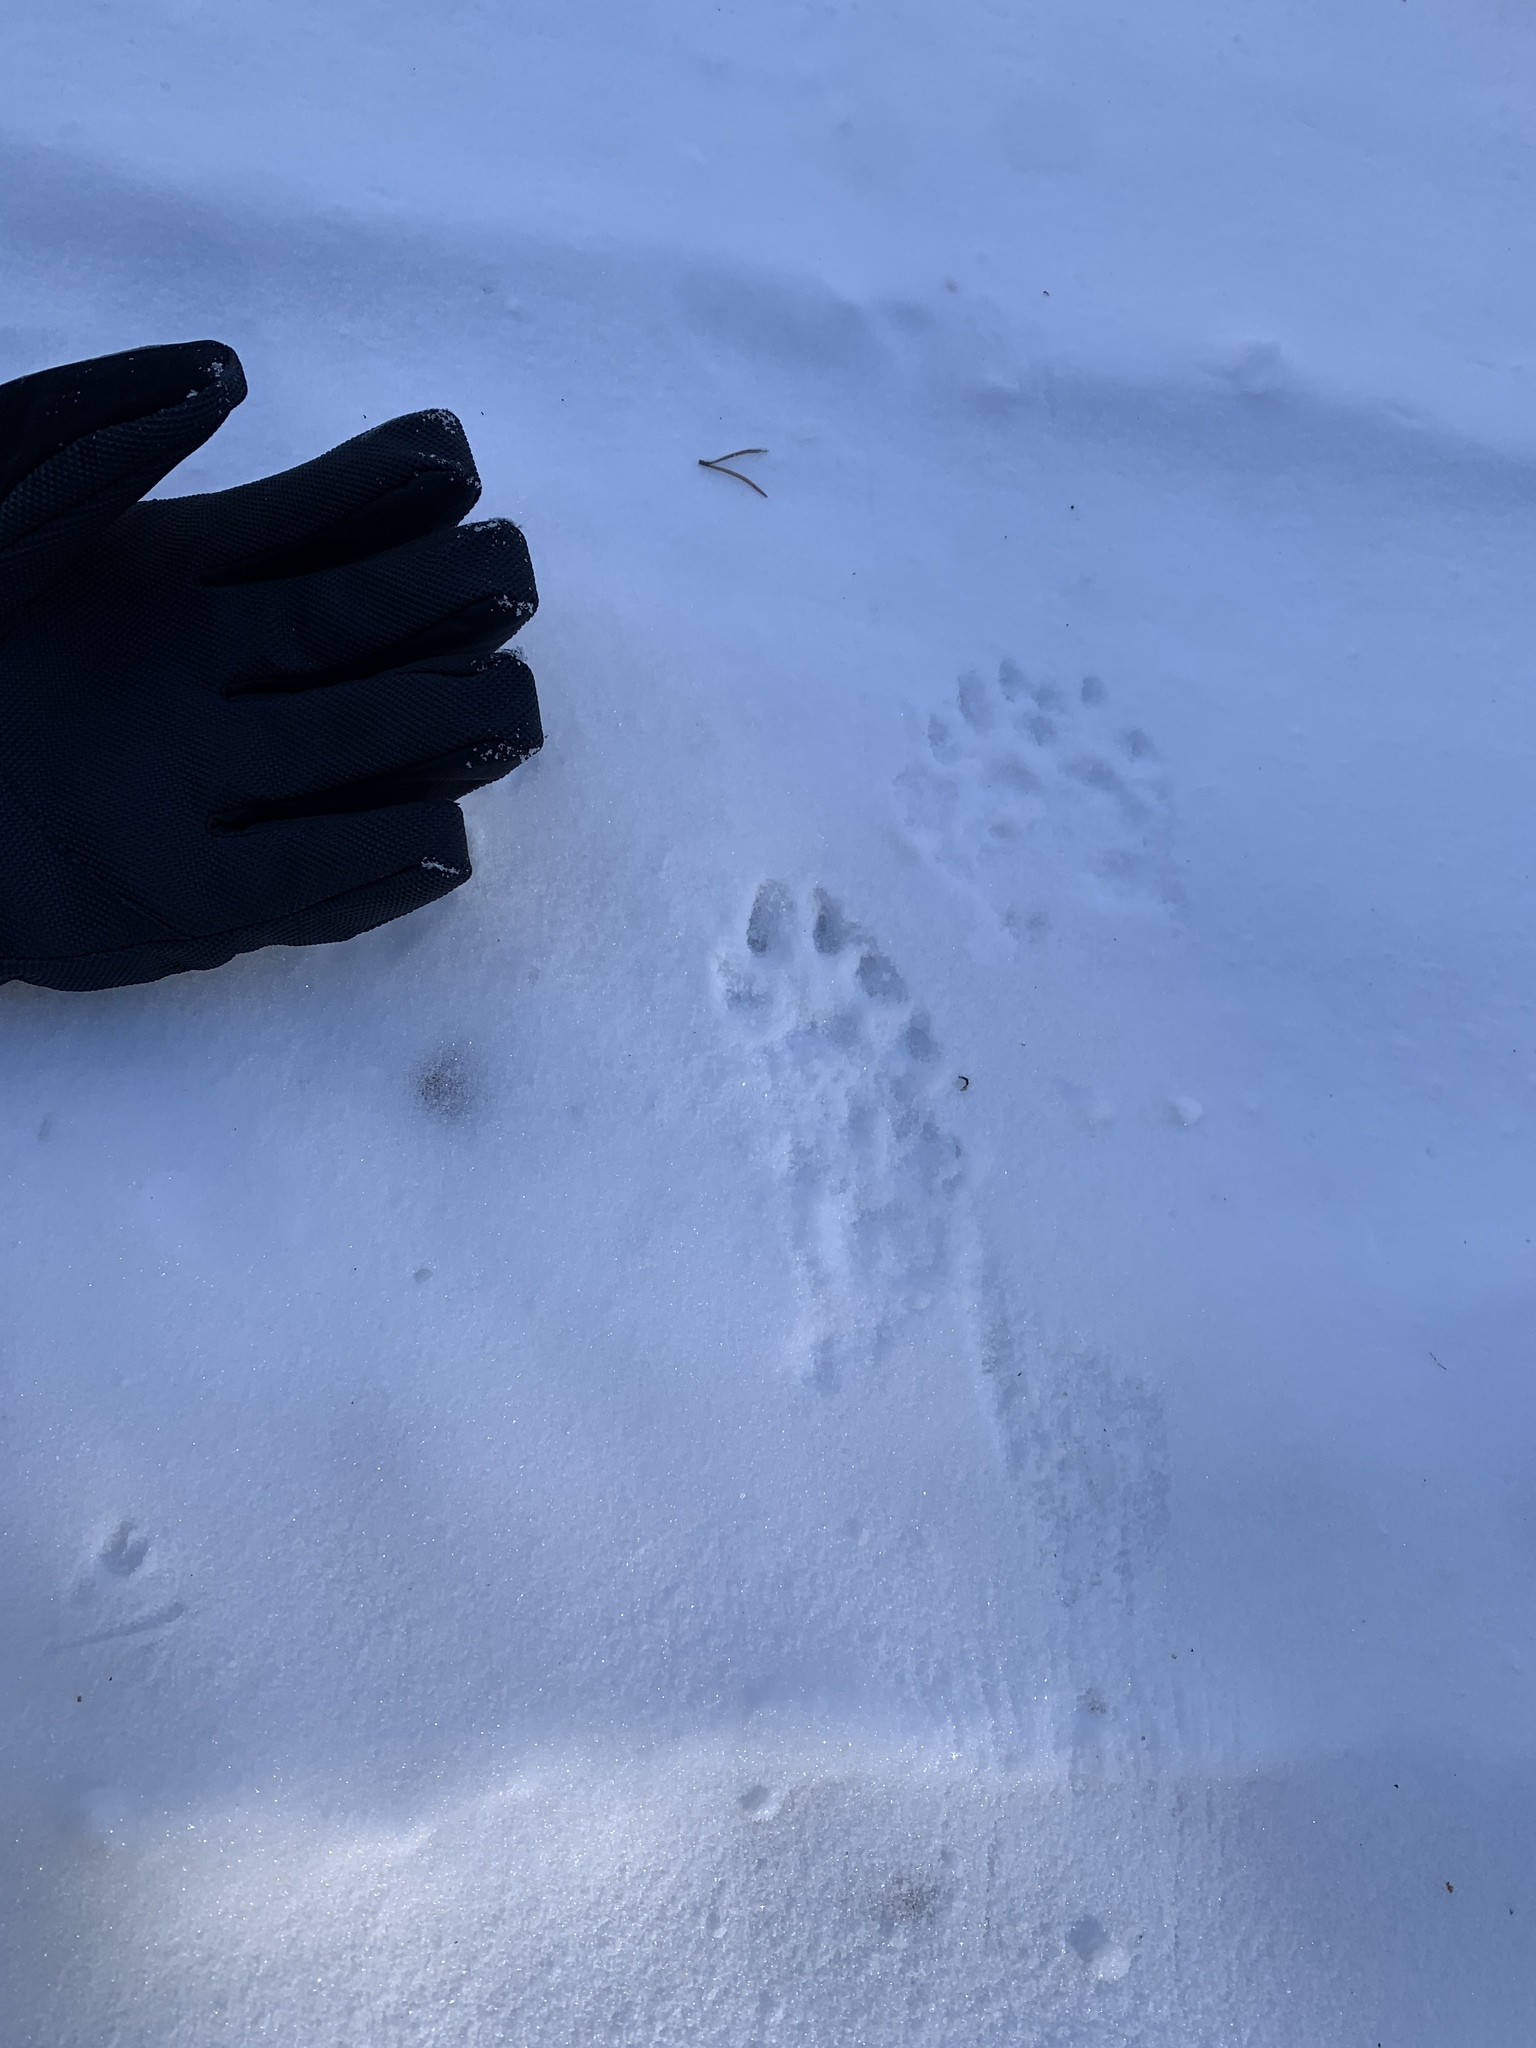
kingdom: Animalia
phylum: Chordata
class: Mammalia
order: Carnivora
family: Mustelidae
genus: Lontra
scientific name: Lontra canadensis
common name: North american river otter
